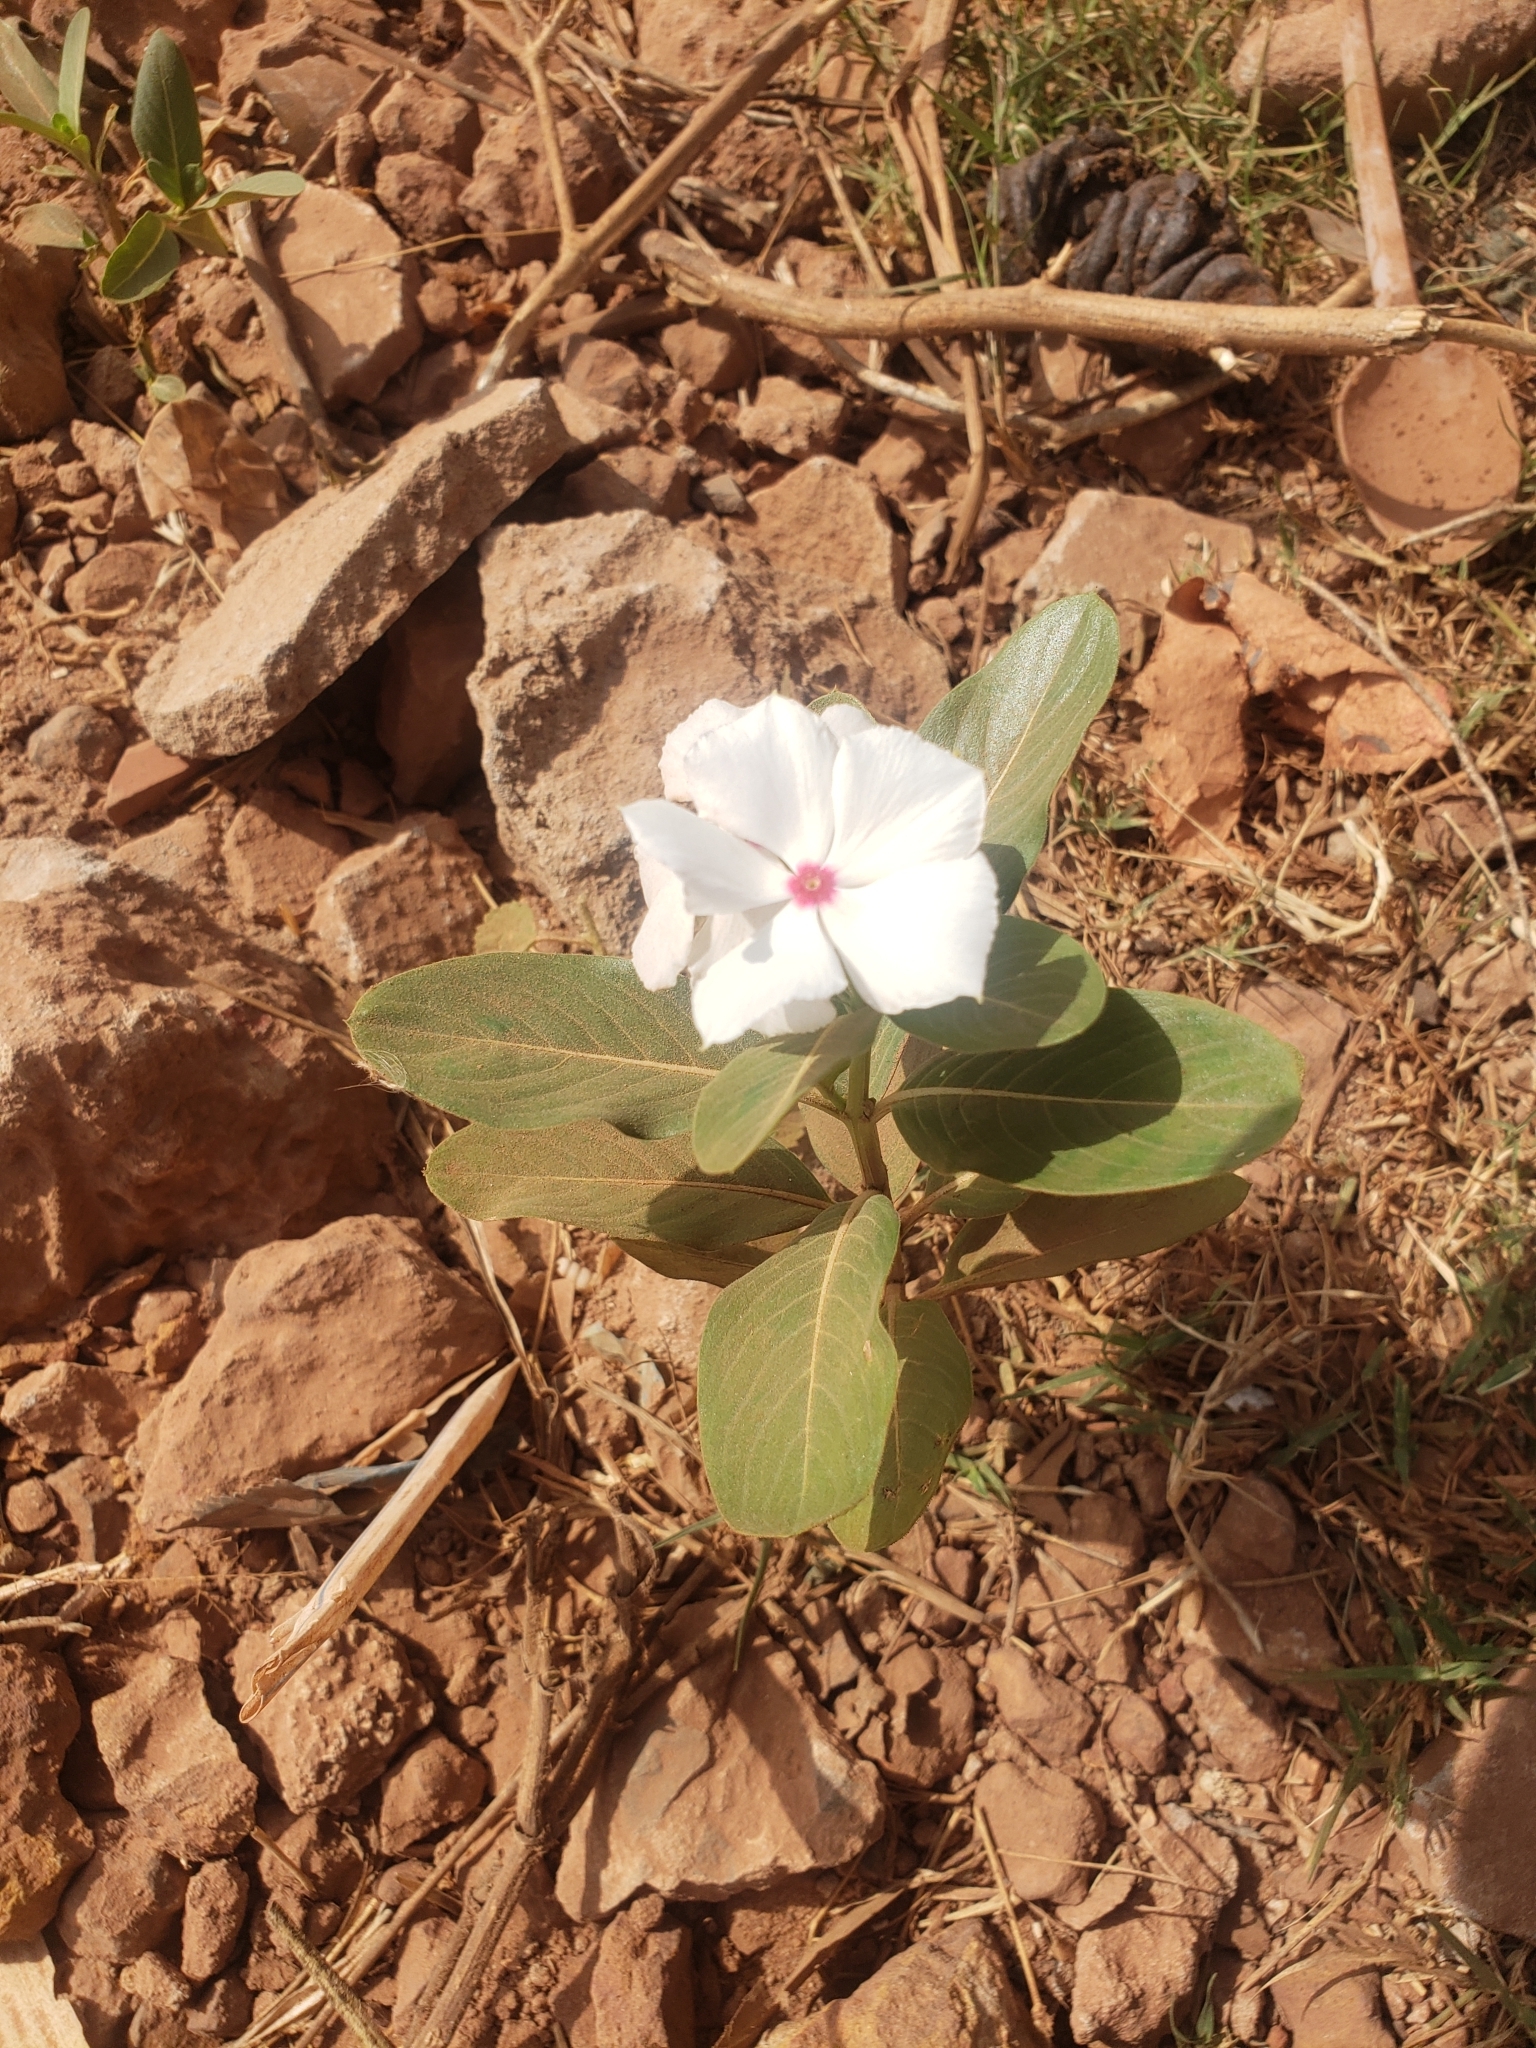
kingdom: Plantae
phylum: Tracheophyta
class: Magnoliopsida
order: Gentianales
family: Apocynaceae
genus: Catharanthus
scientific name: Catharanthus roseus
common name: Madagascar periwinkle
